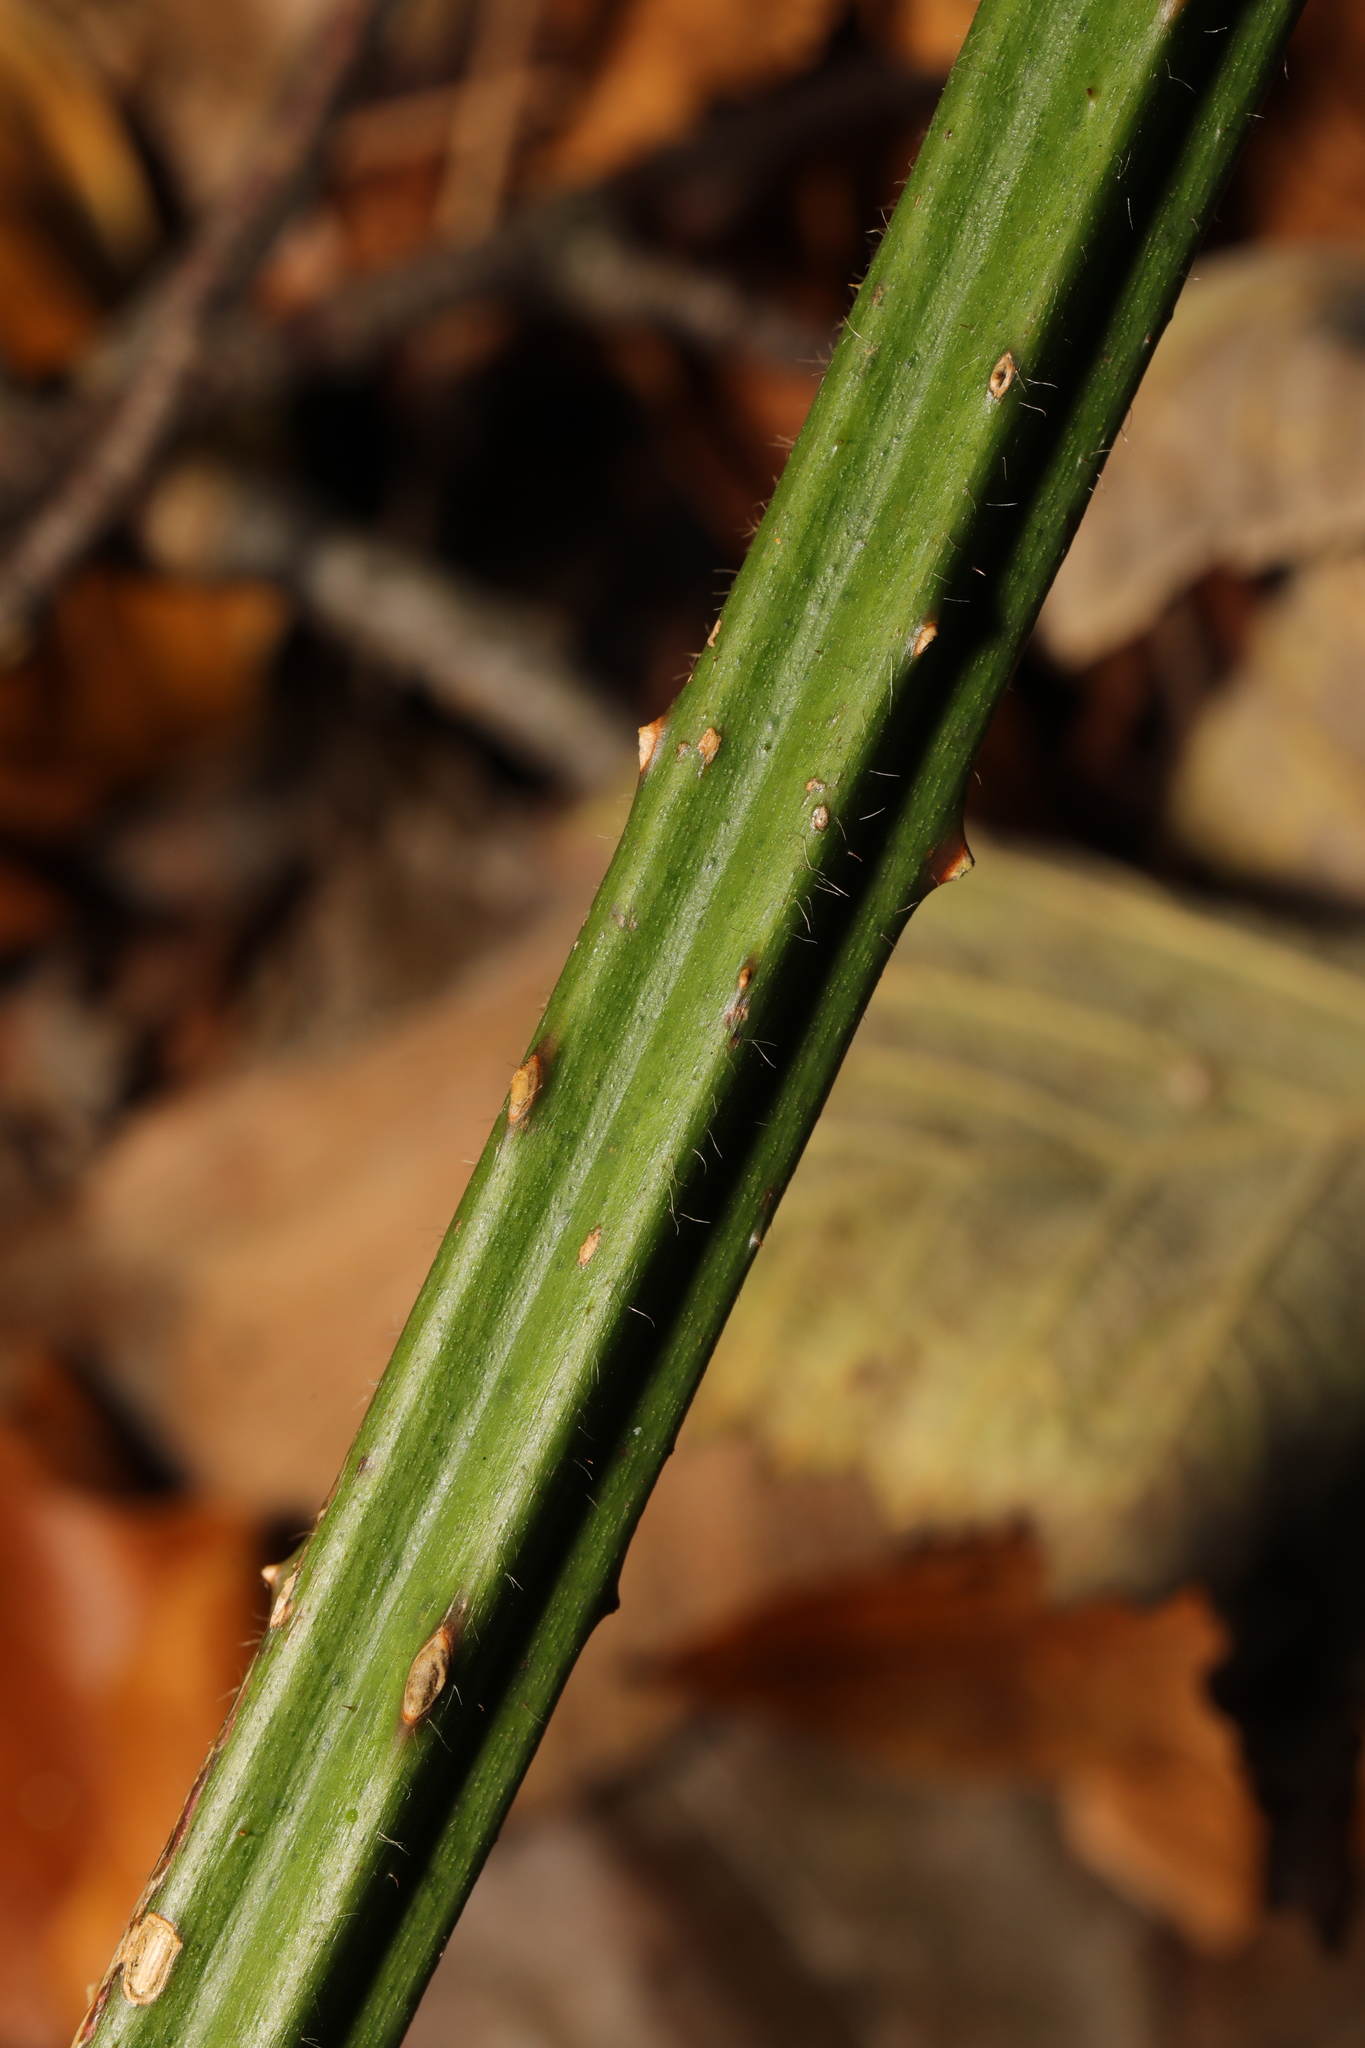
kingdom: Plantae
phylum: Tracheophyta
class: Magnoliopsida
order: Rosales
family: Rosaceae
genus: Rubus
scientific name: Rubus armeniacus
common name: Himalayan blackberry
